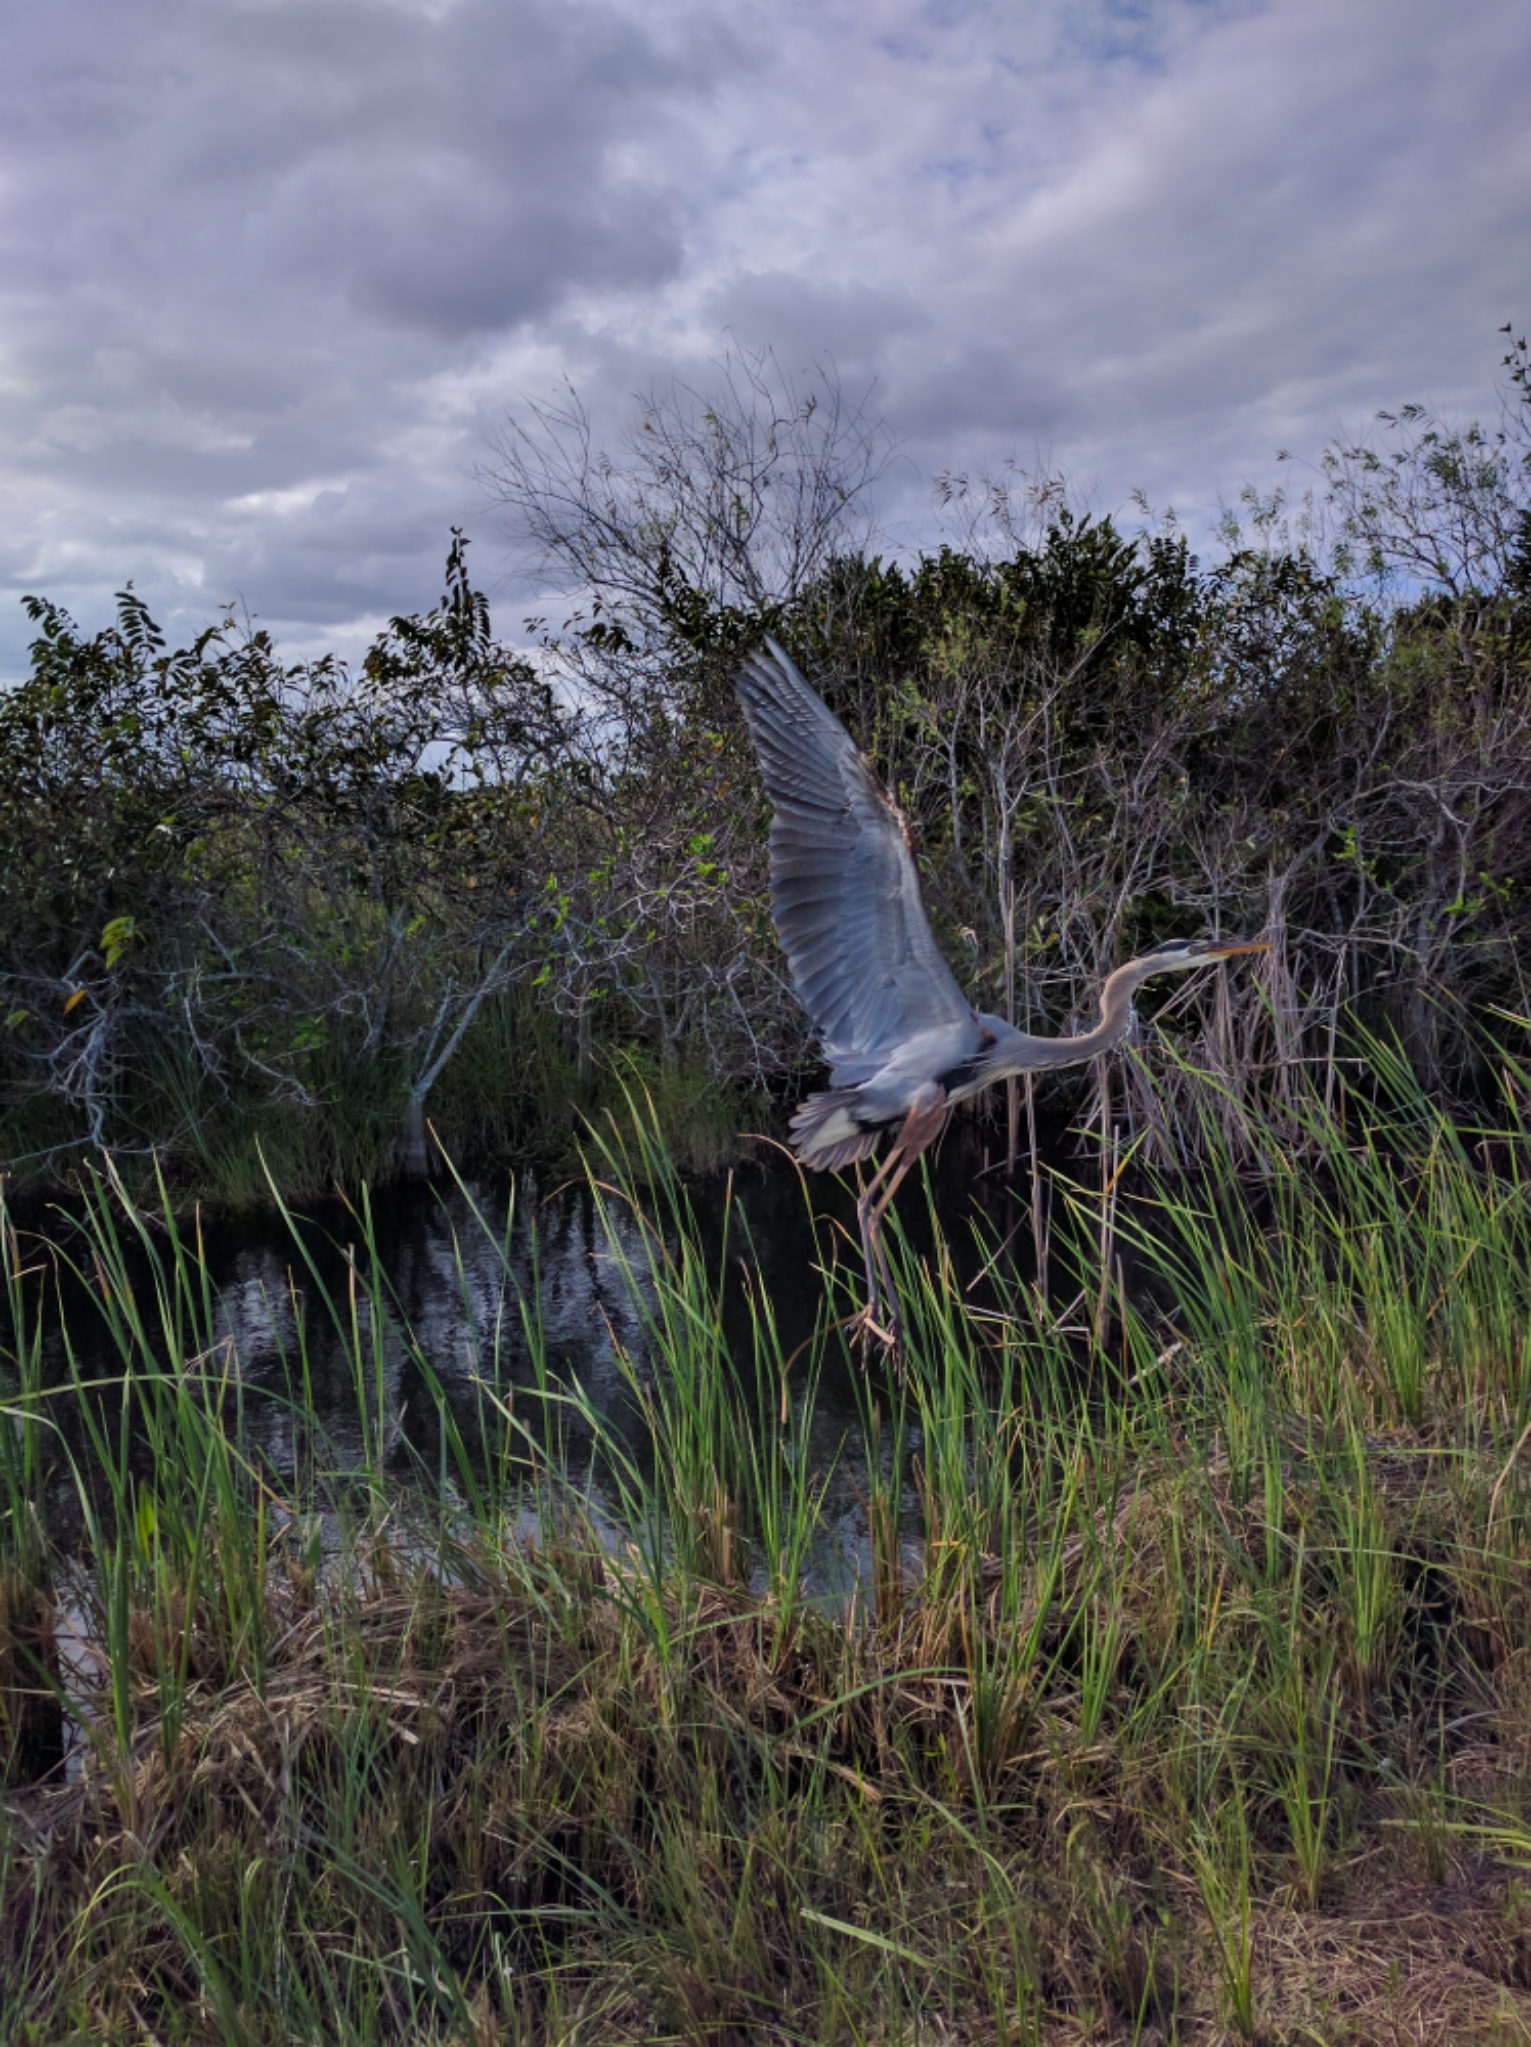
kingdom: Animalia
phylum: Chordata
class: Aves
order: Pelecaniformes
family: Ardeidae
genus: Ardea
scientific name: Ardea herodias
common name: Great blue heron
